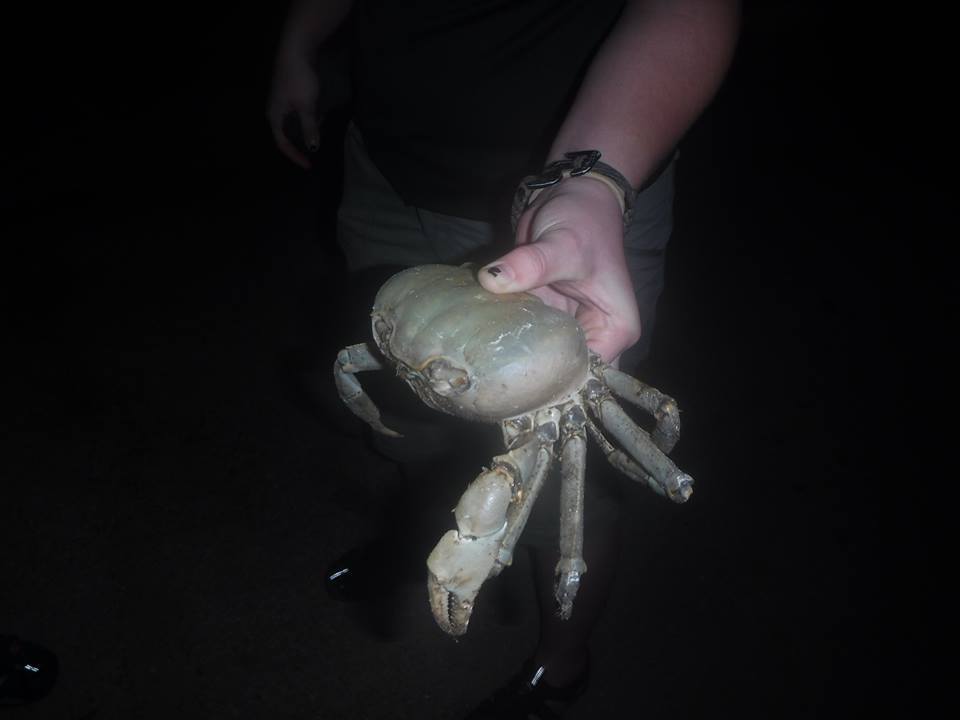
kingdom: Animalia
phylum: Arthropoda
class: Malacostraca
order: Decapoda
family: Gecarcinidae
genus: Cardisoma
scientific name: Cardisoma guanhumi
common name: Great land crab
